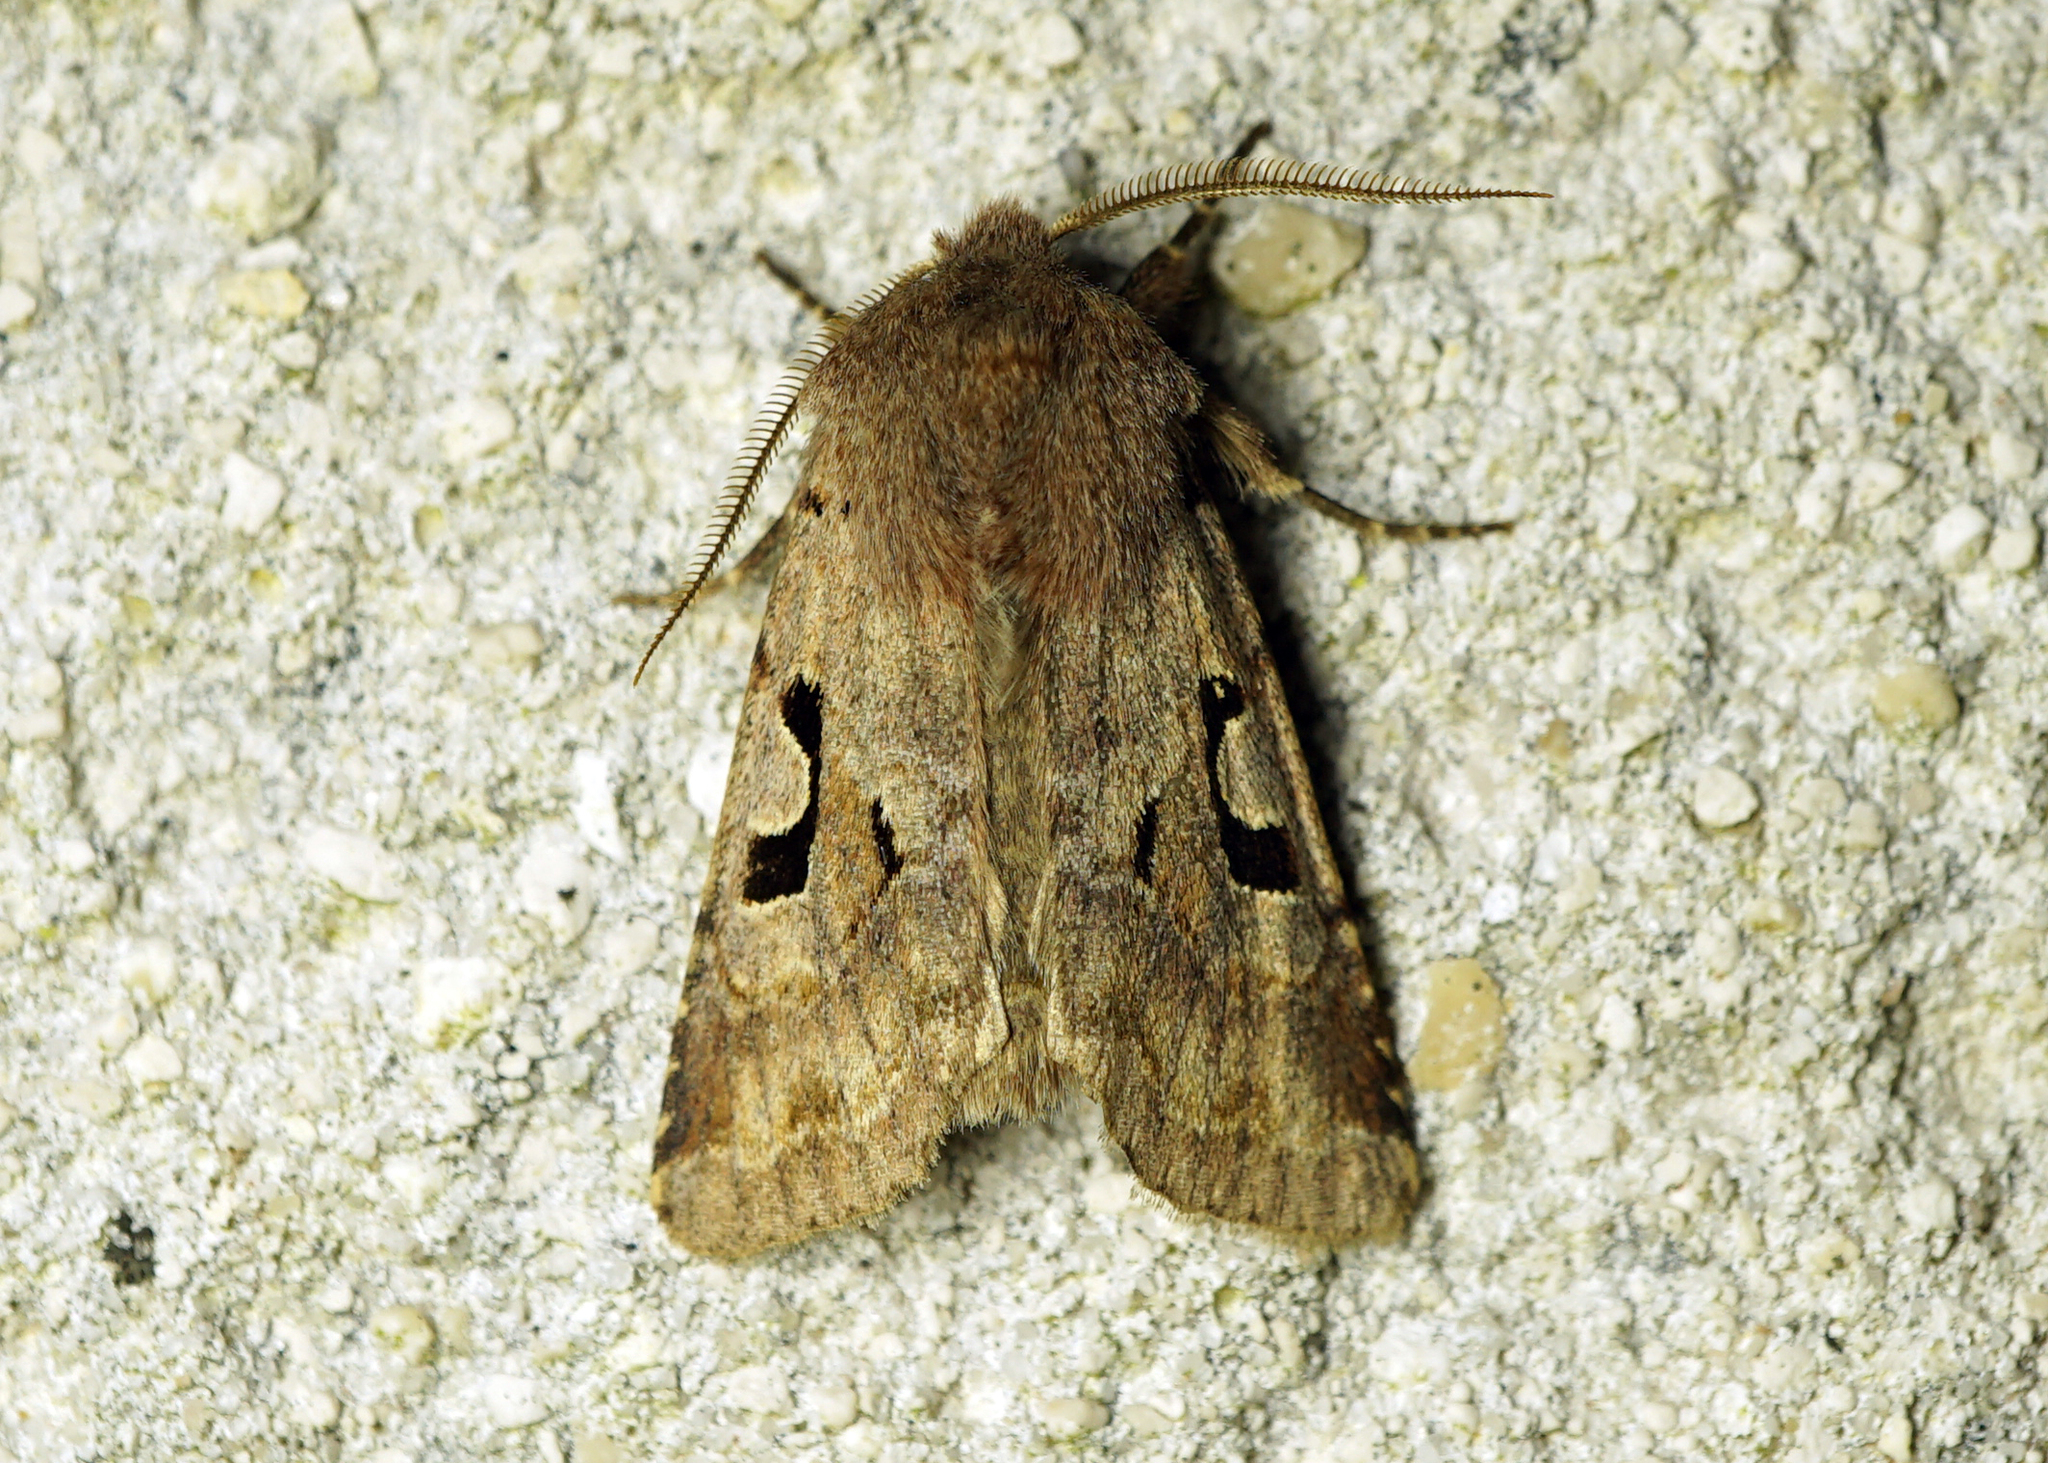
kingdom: Animalia
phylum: Arthropoda
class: Insecta
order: Lepidoptera
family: Noctuidae
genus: Orthosia
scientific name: Orthosia gothica
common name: Hebrew character
